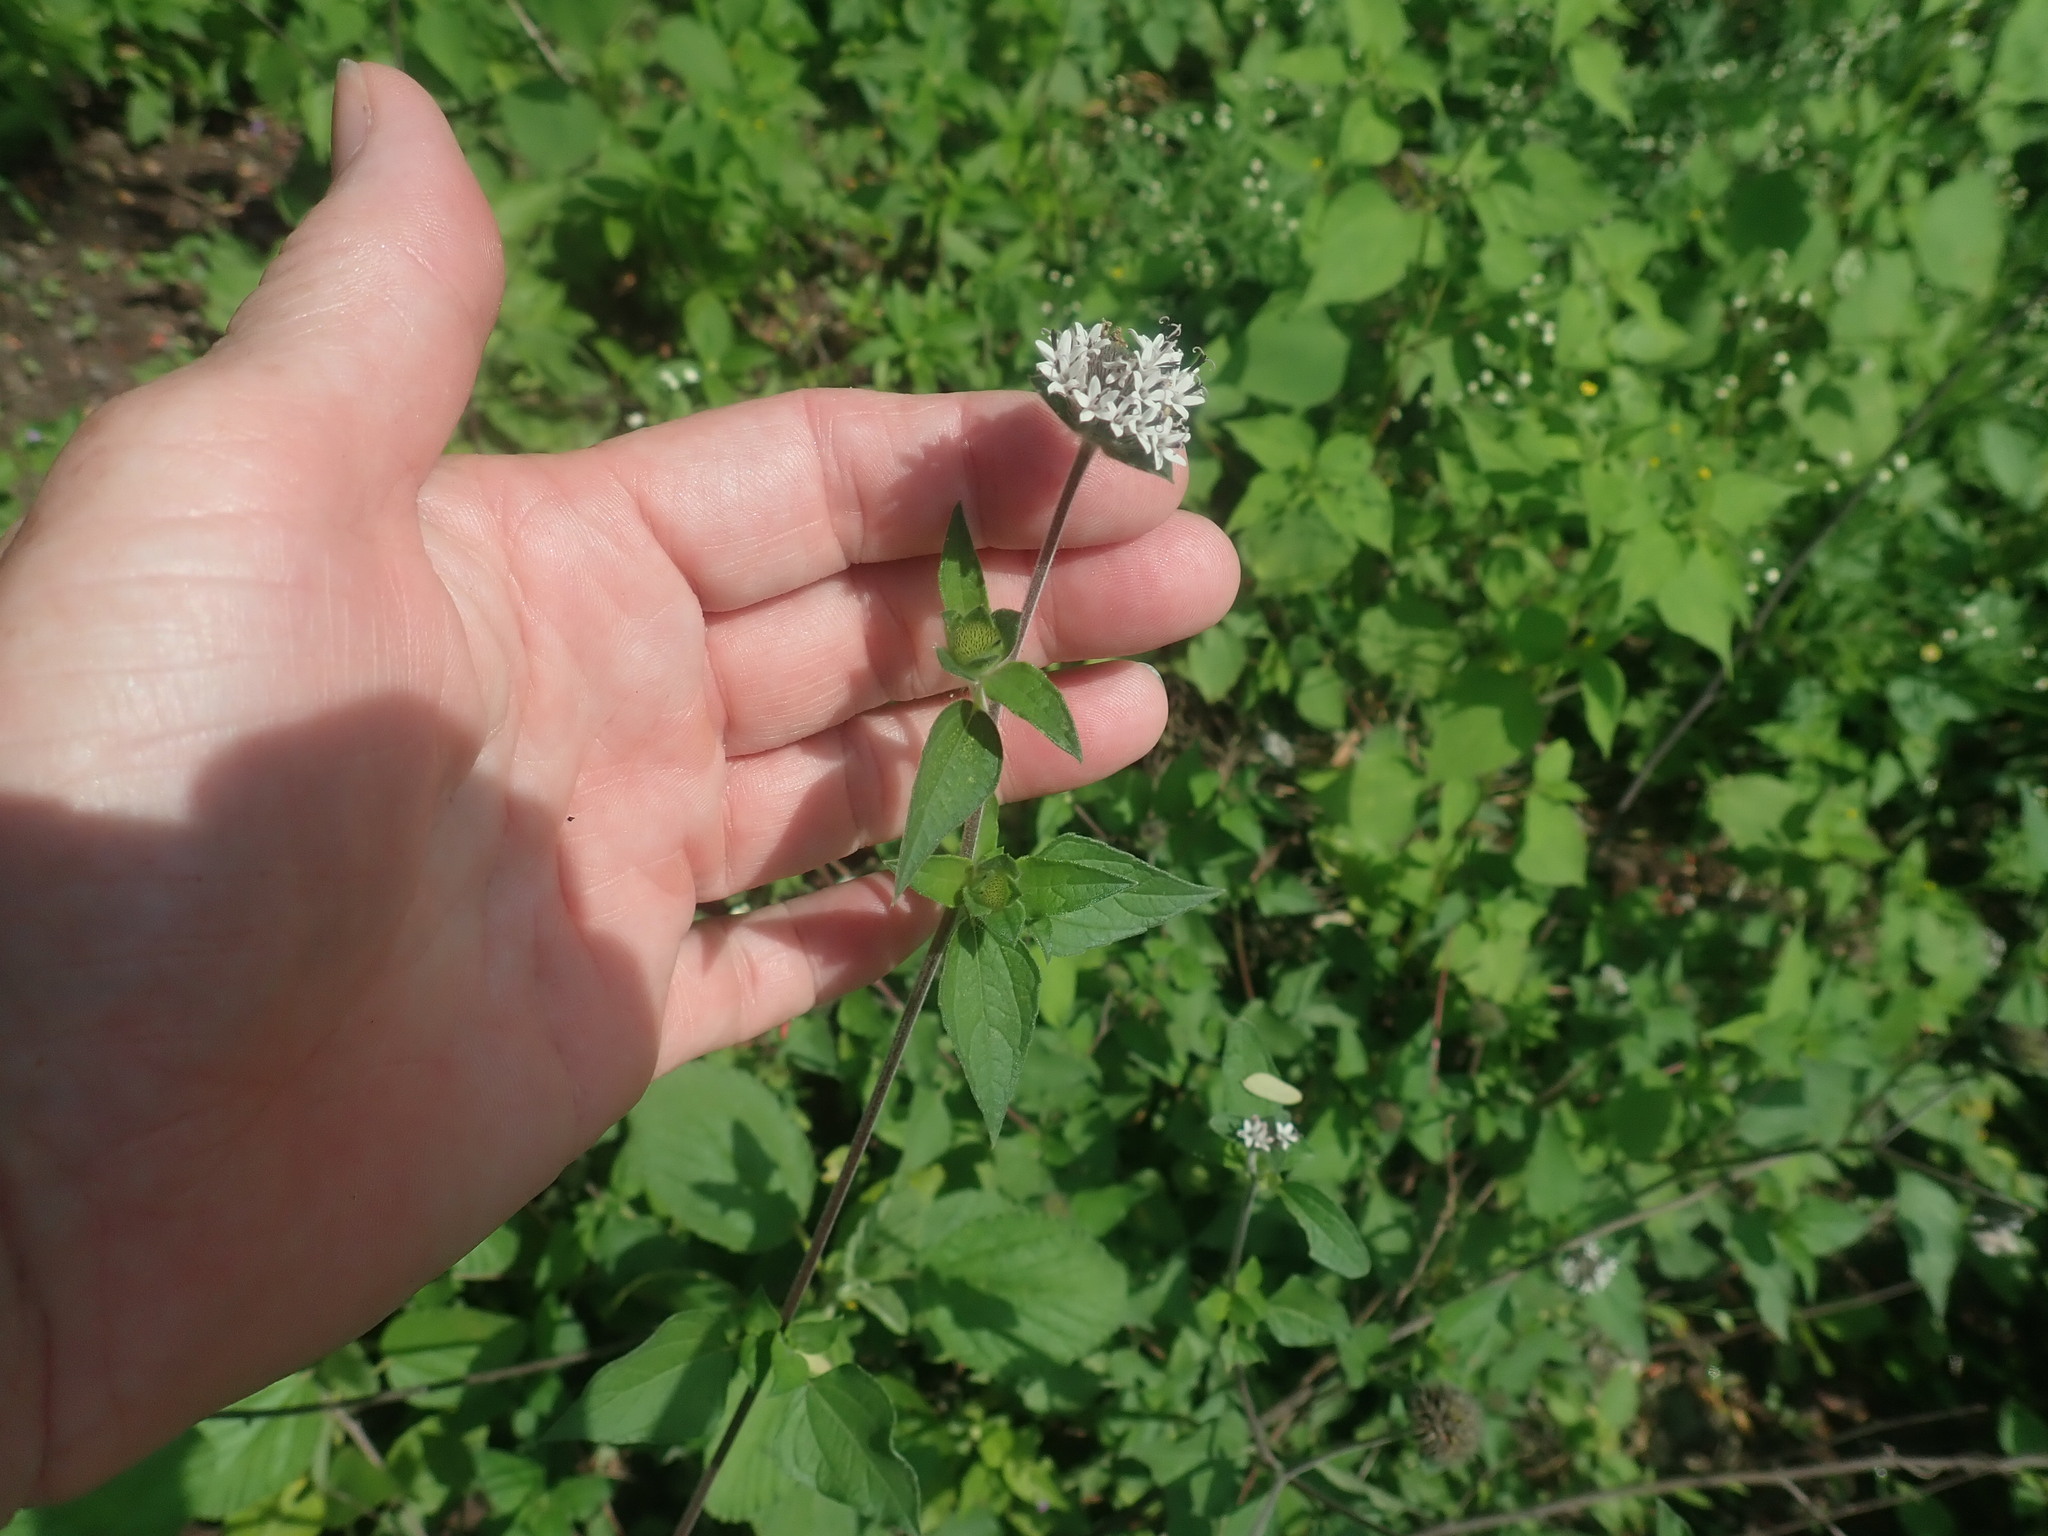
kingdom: Plantae
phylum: Tracheophyta
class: Magnoliopsida
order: Asterales
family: Asteraceae
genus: Lagascea
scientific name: Lagascea mollis
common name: Silkleaf
